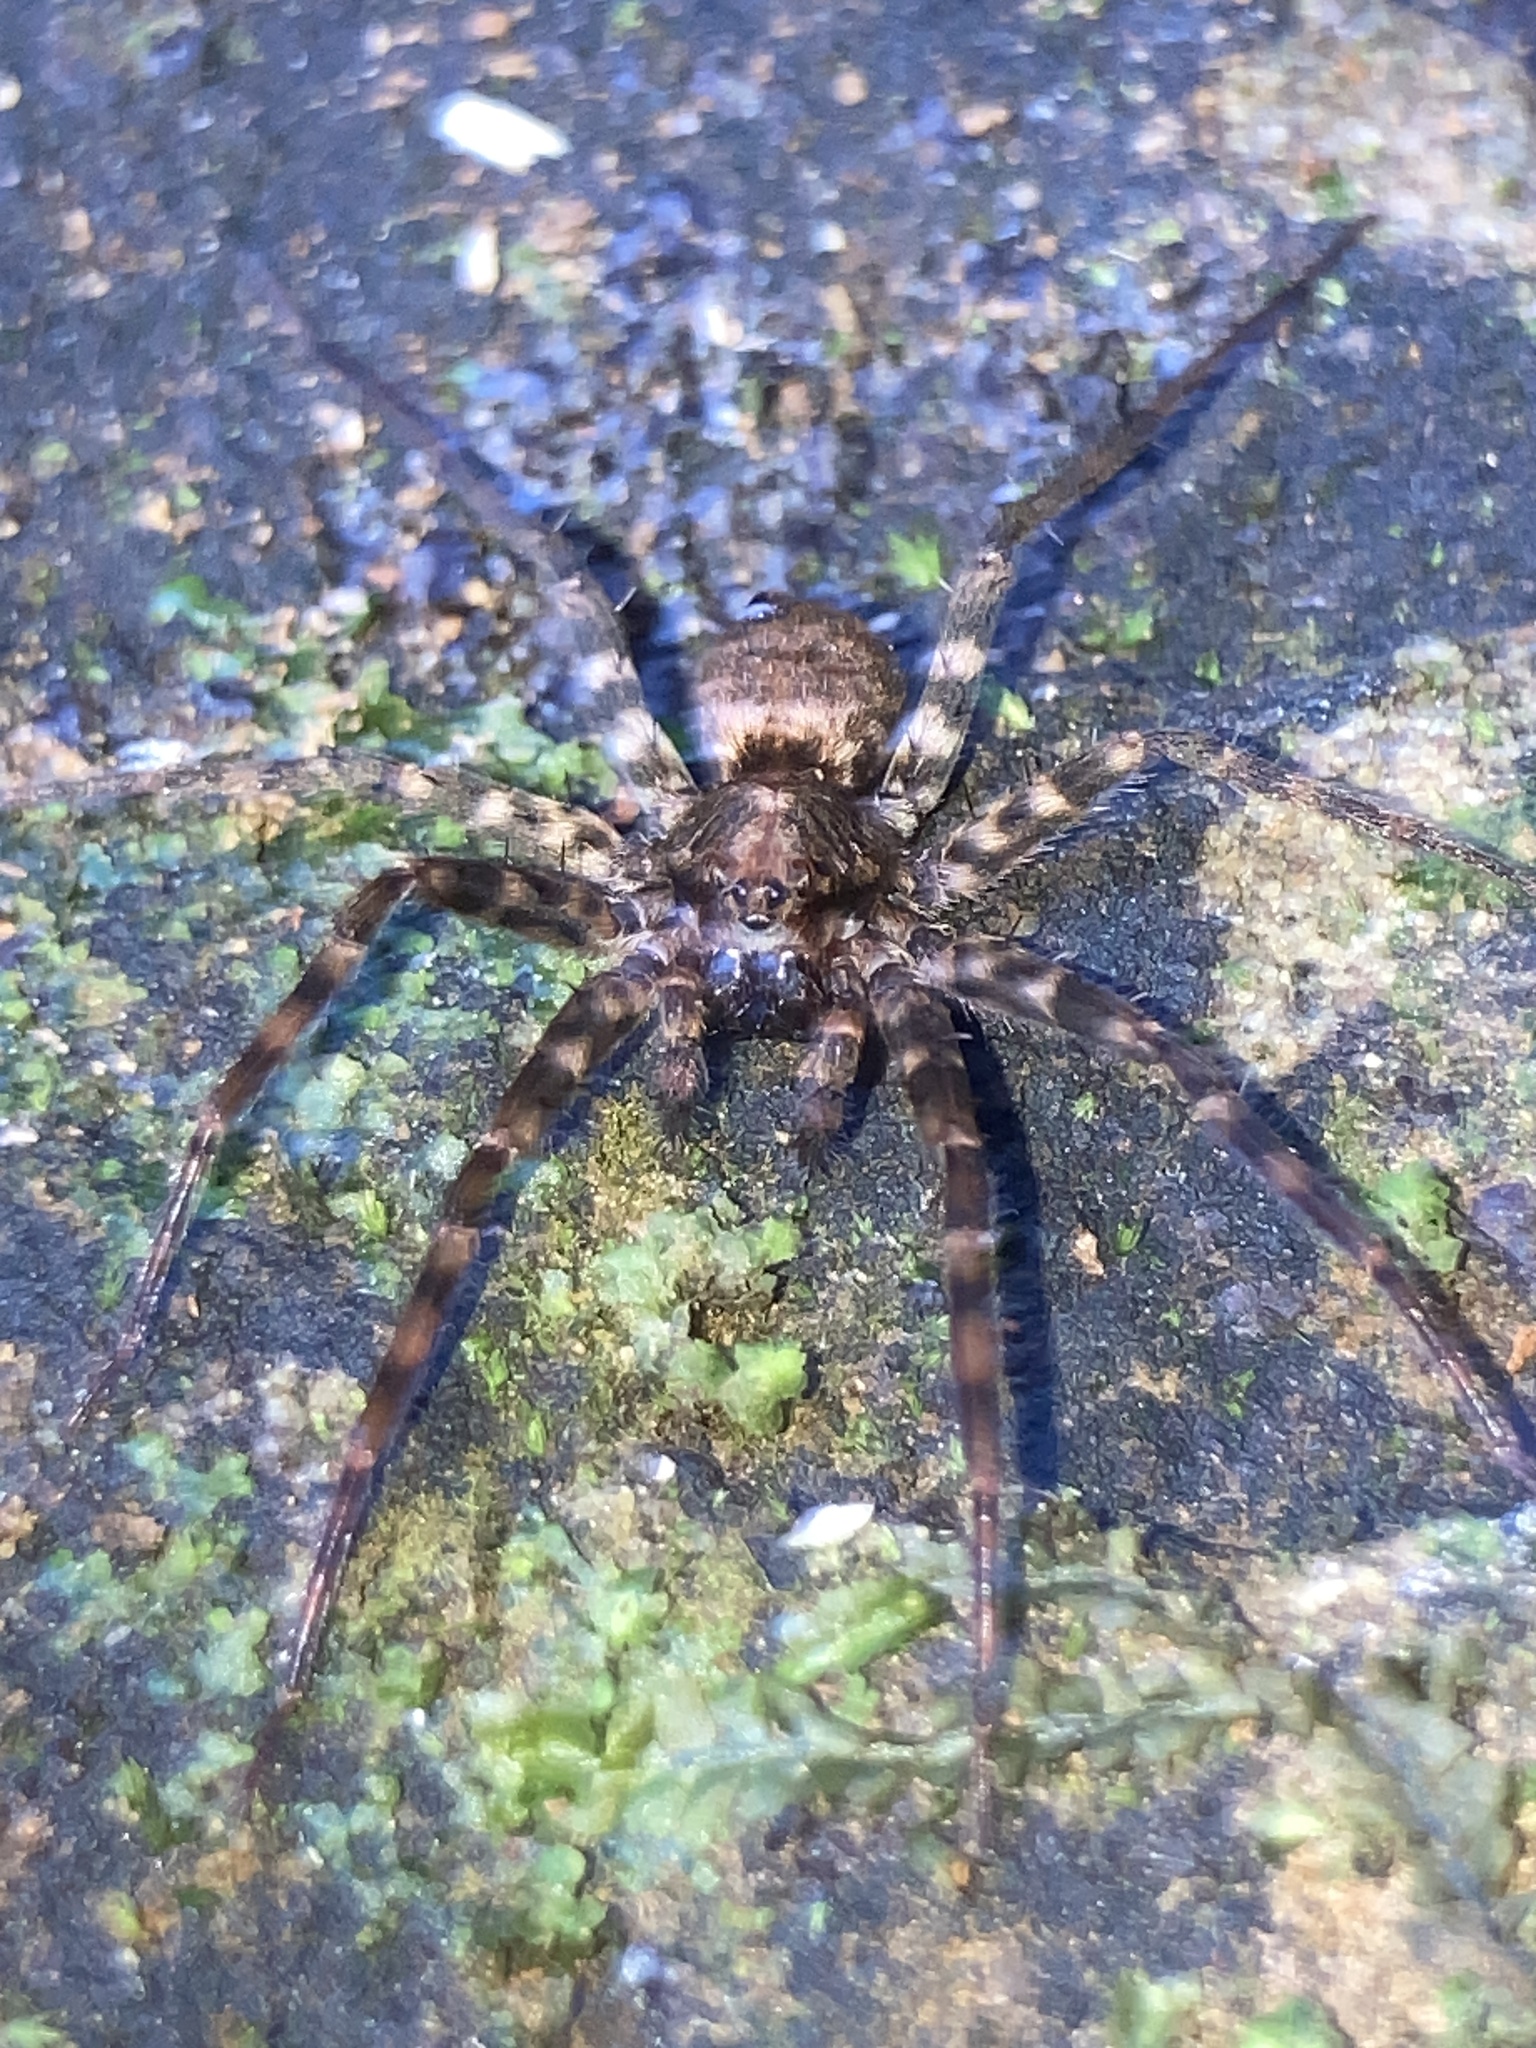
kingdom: Animalia
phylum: Arthropoda
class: Arachnida
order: Araneae
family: Cycloctenidae
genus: Cycloctenus
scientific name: Cycloctenus robustus
